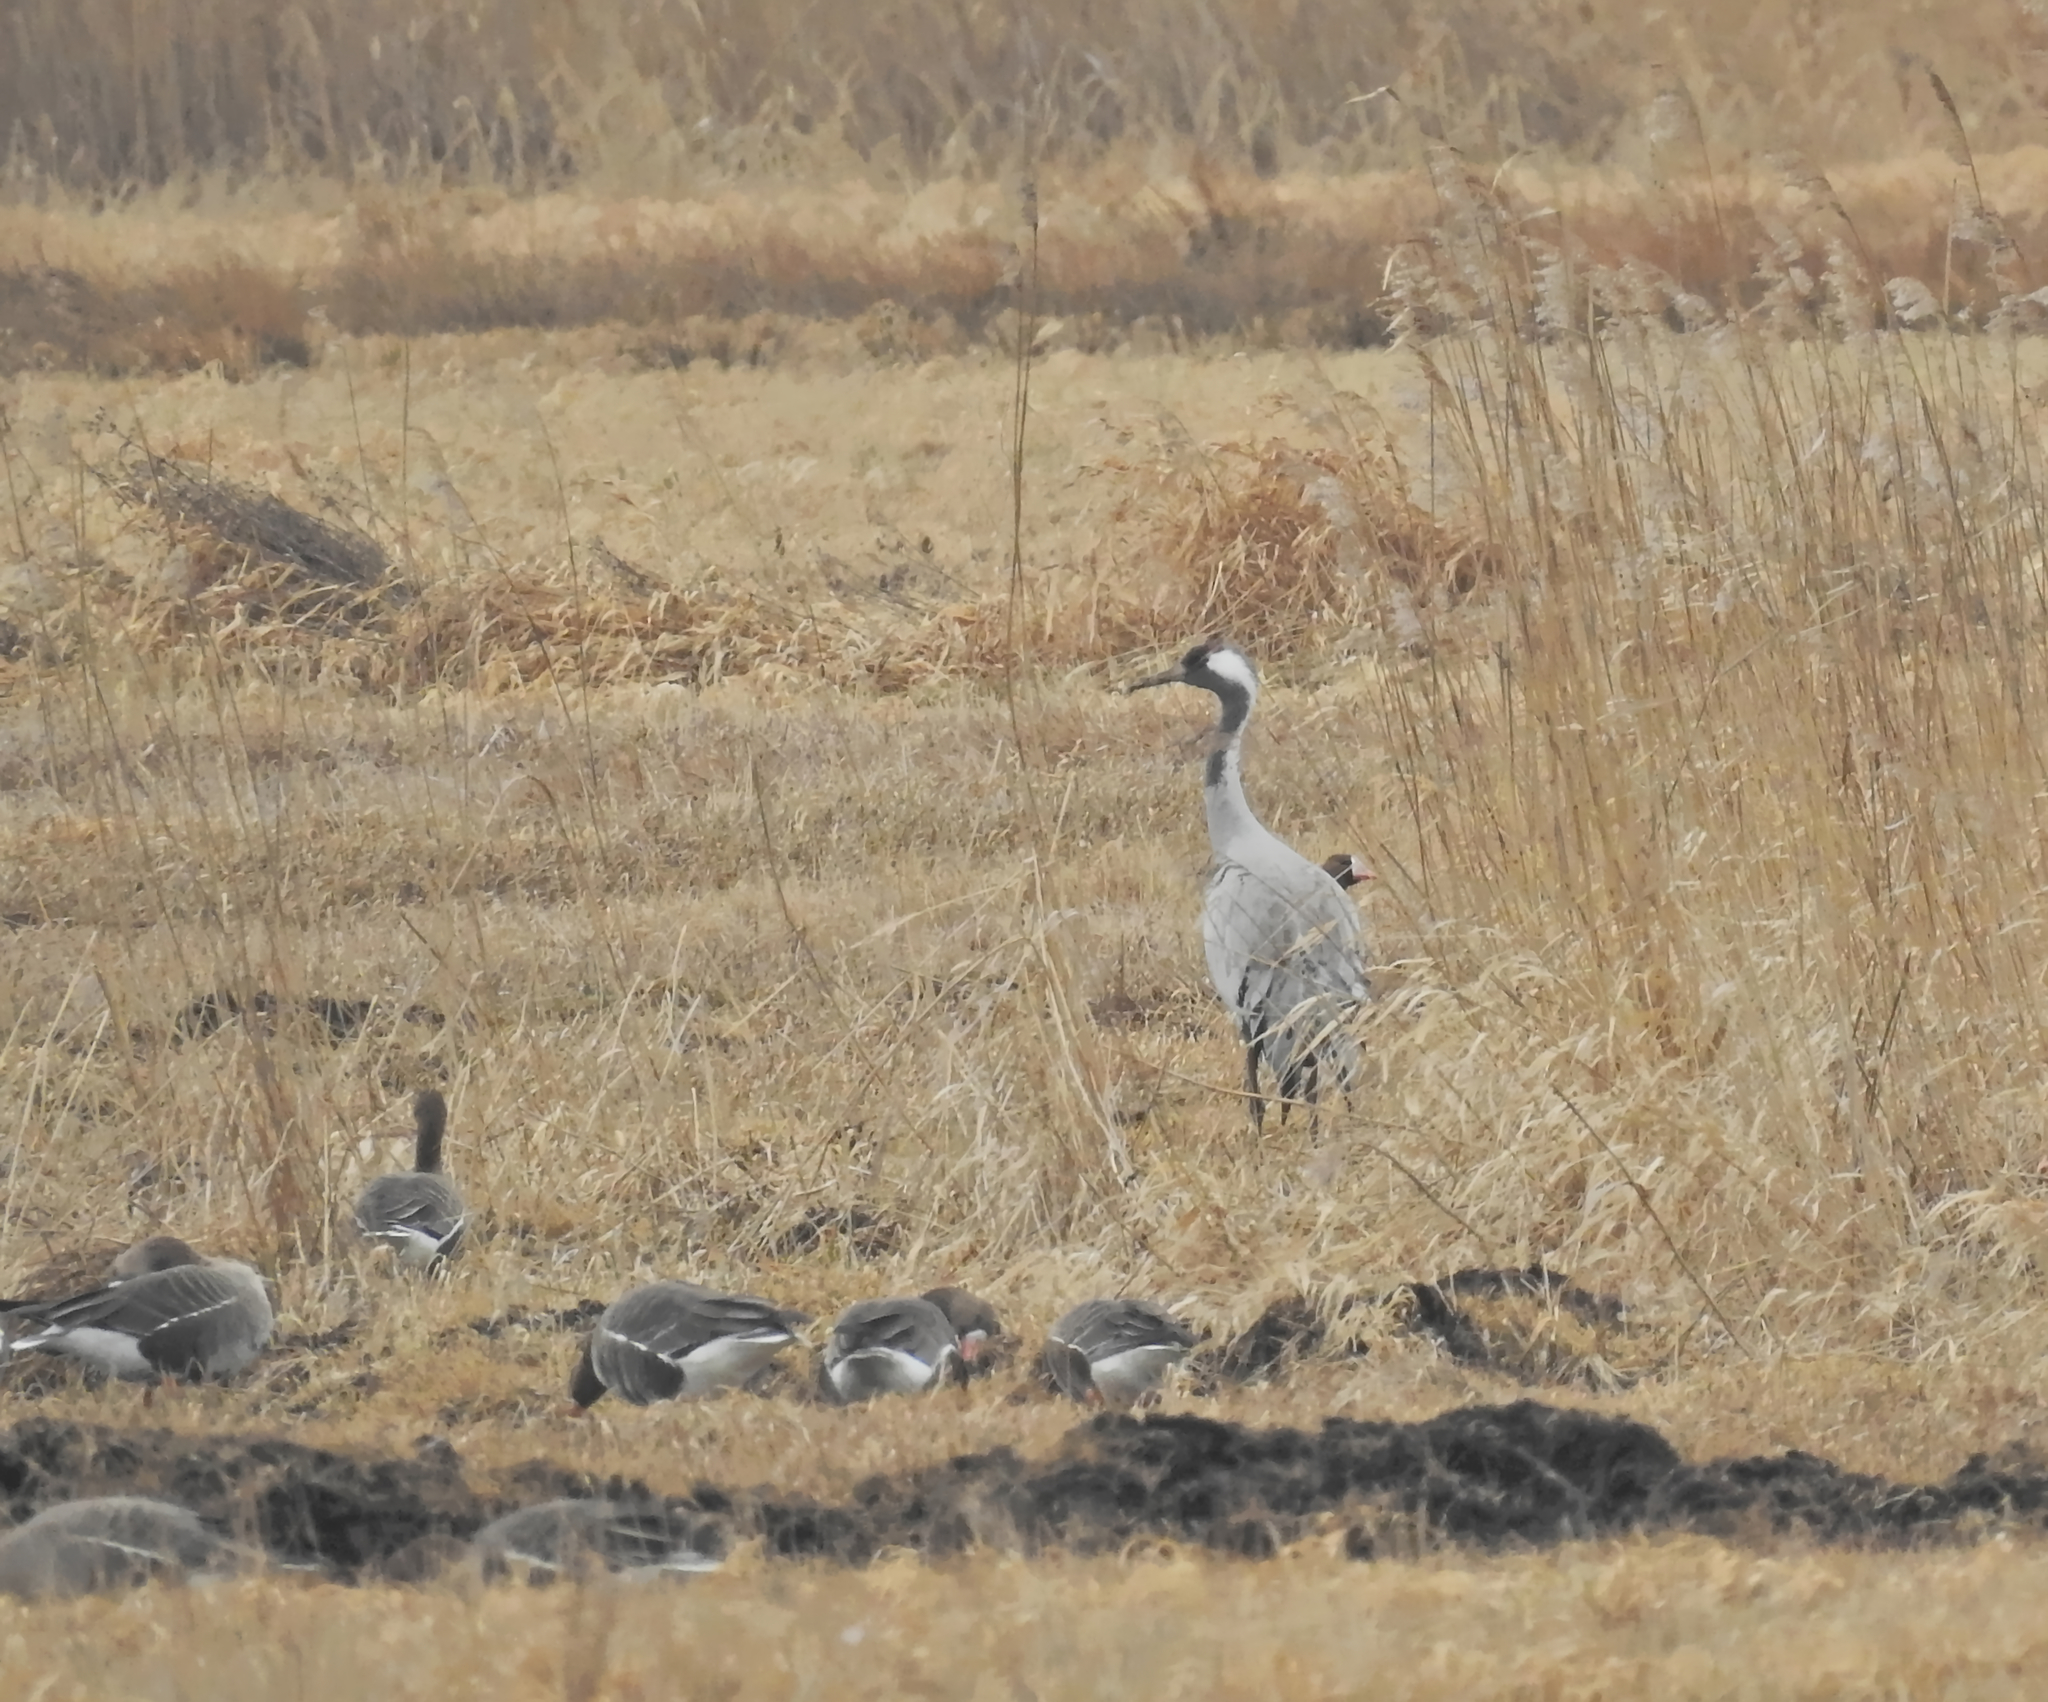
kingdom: Animalia
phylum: Chordata
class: Aves
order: Gruiformes
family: Gruidae
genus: Grus
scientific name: Grus grus
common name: Common crane
